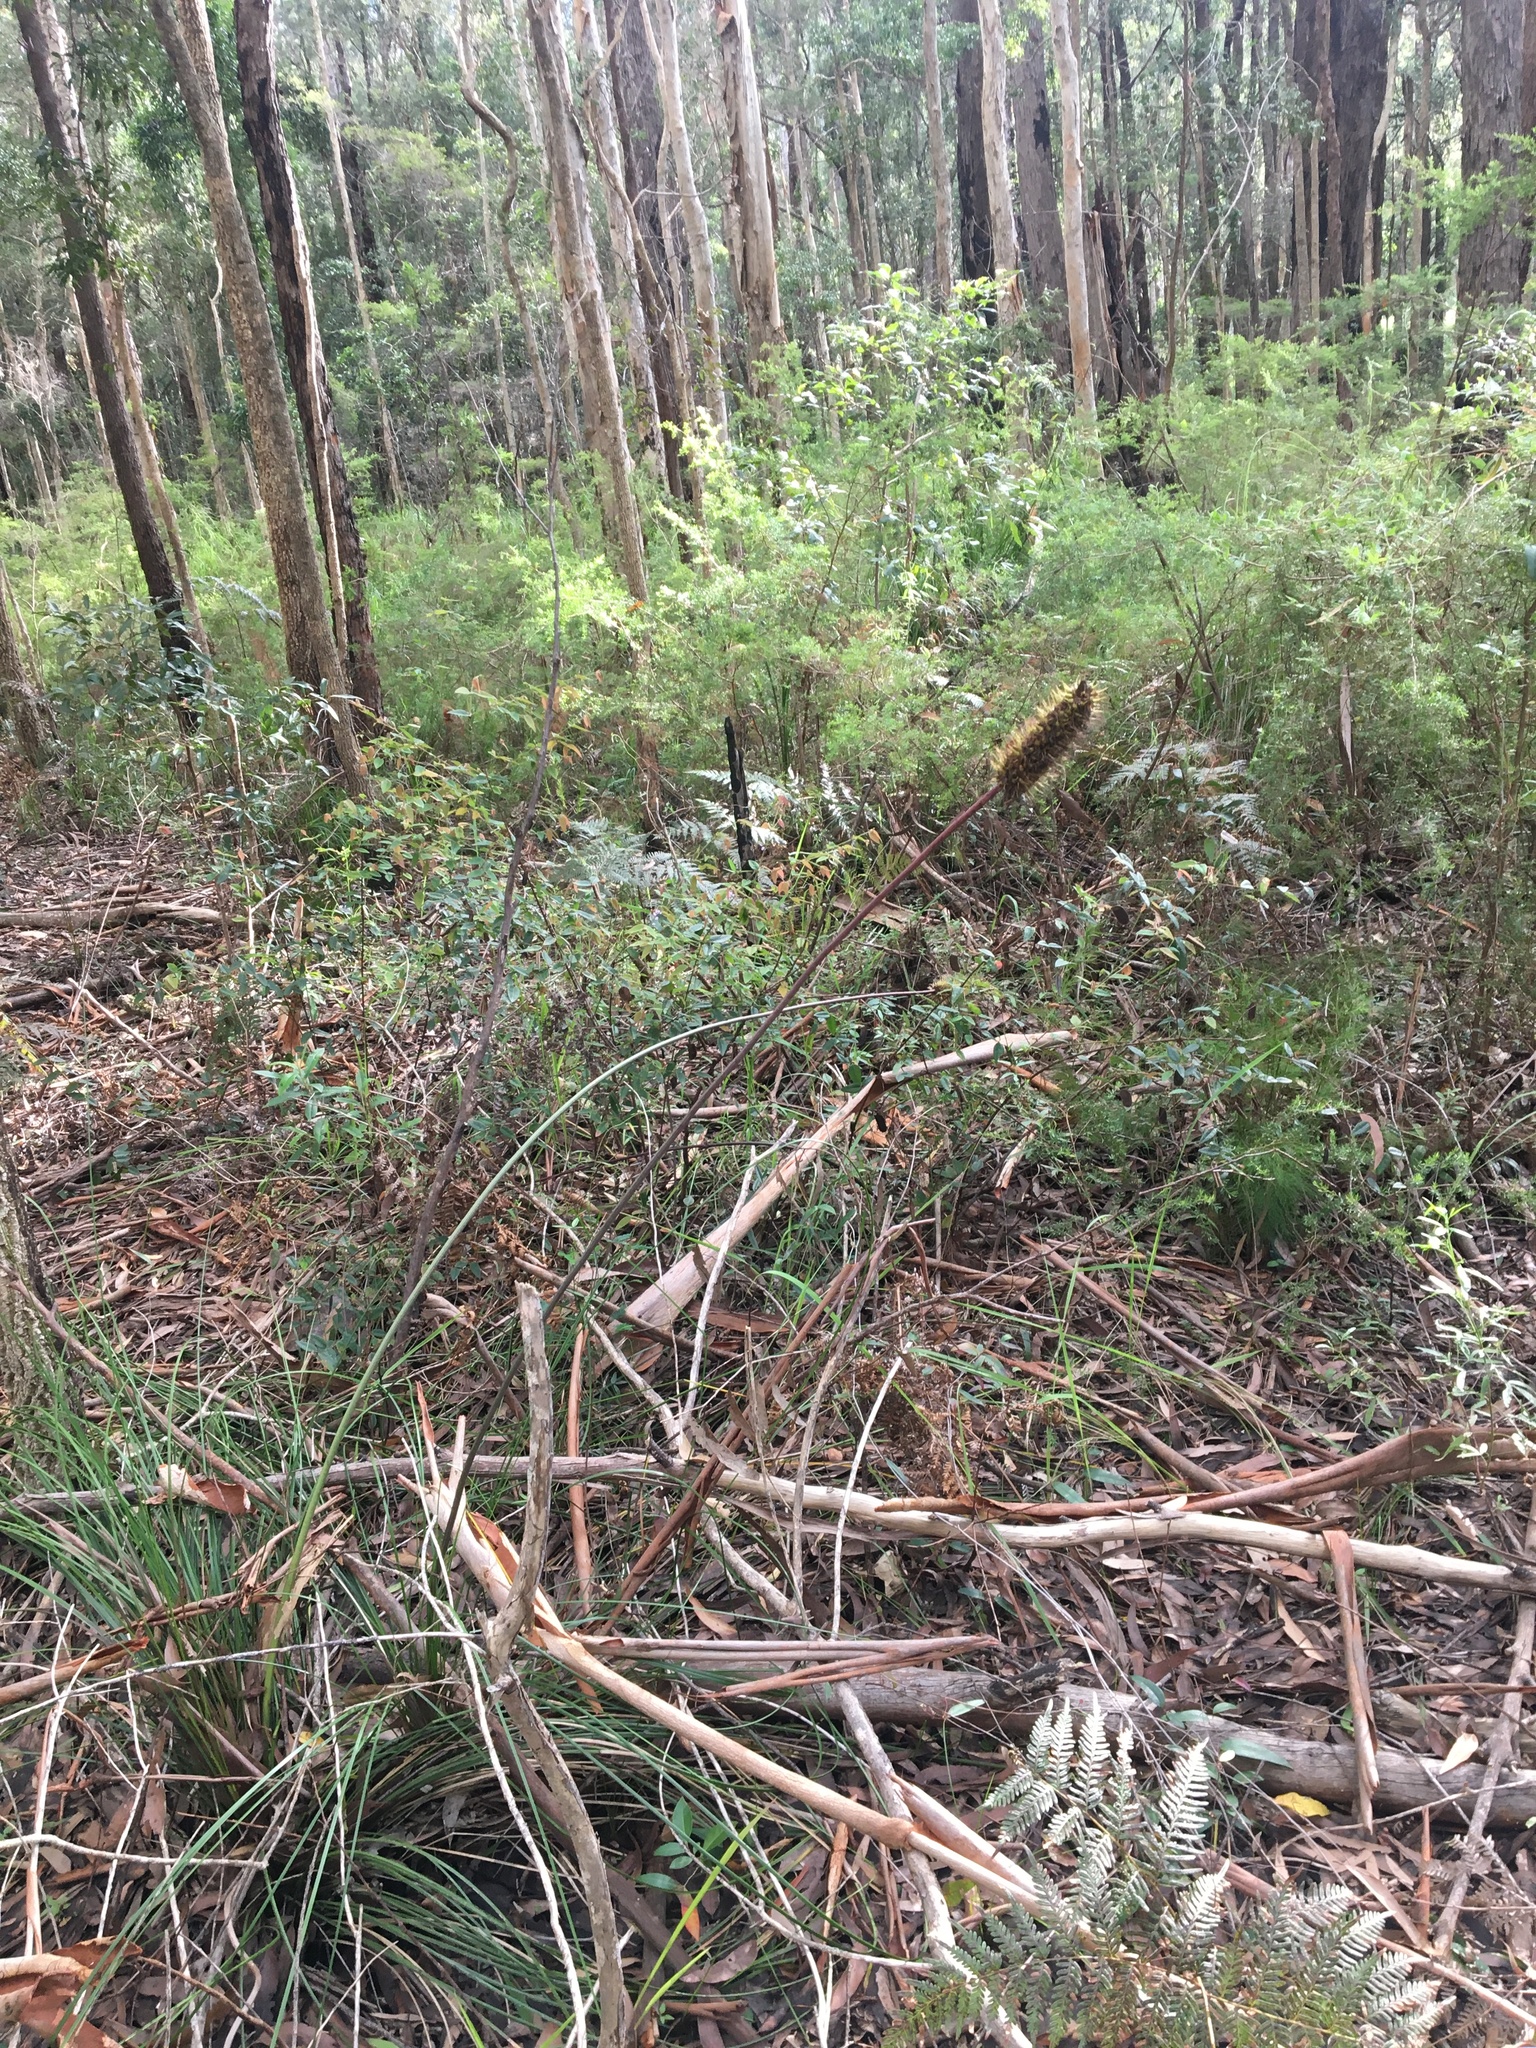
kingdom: Plantae
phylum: Tracheophyta
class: Liliopsida
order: Asparagales
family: Asphodelaceae
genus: Xanthorrhoea
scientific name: Xanthorrhoea macronema
